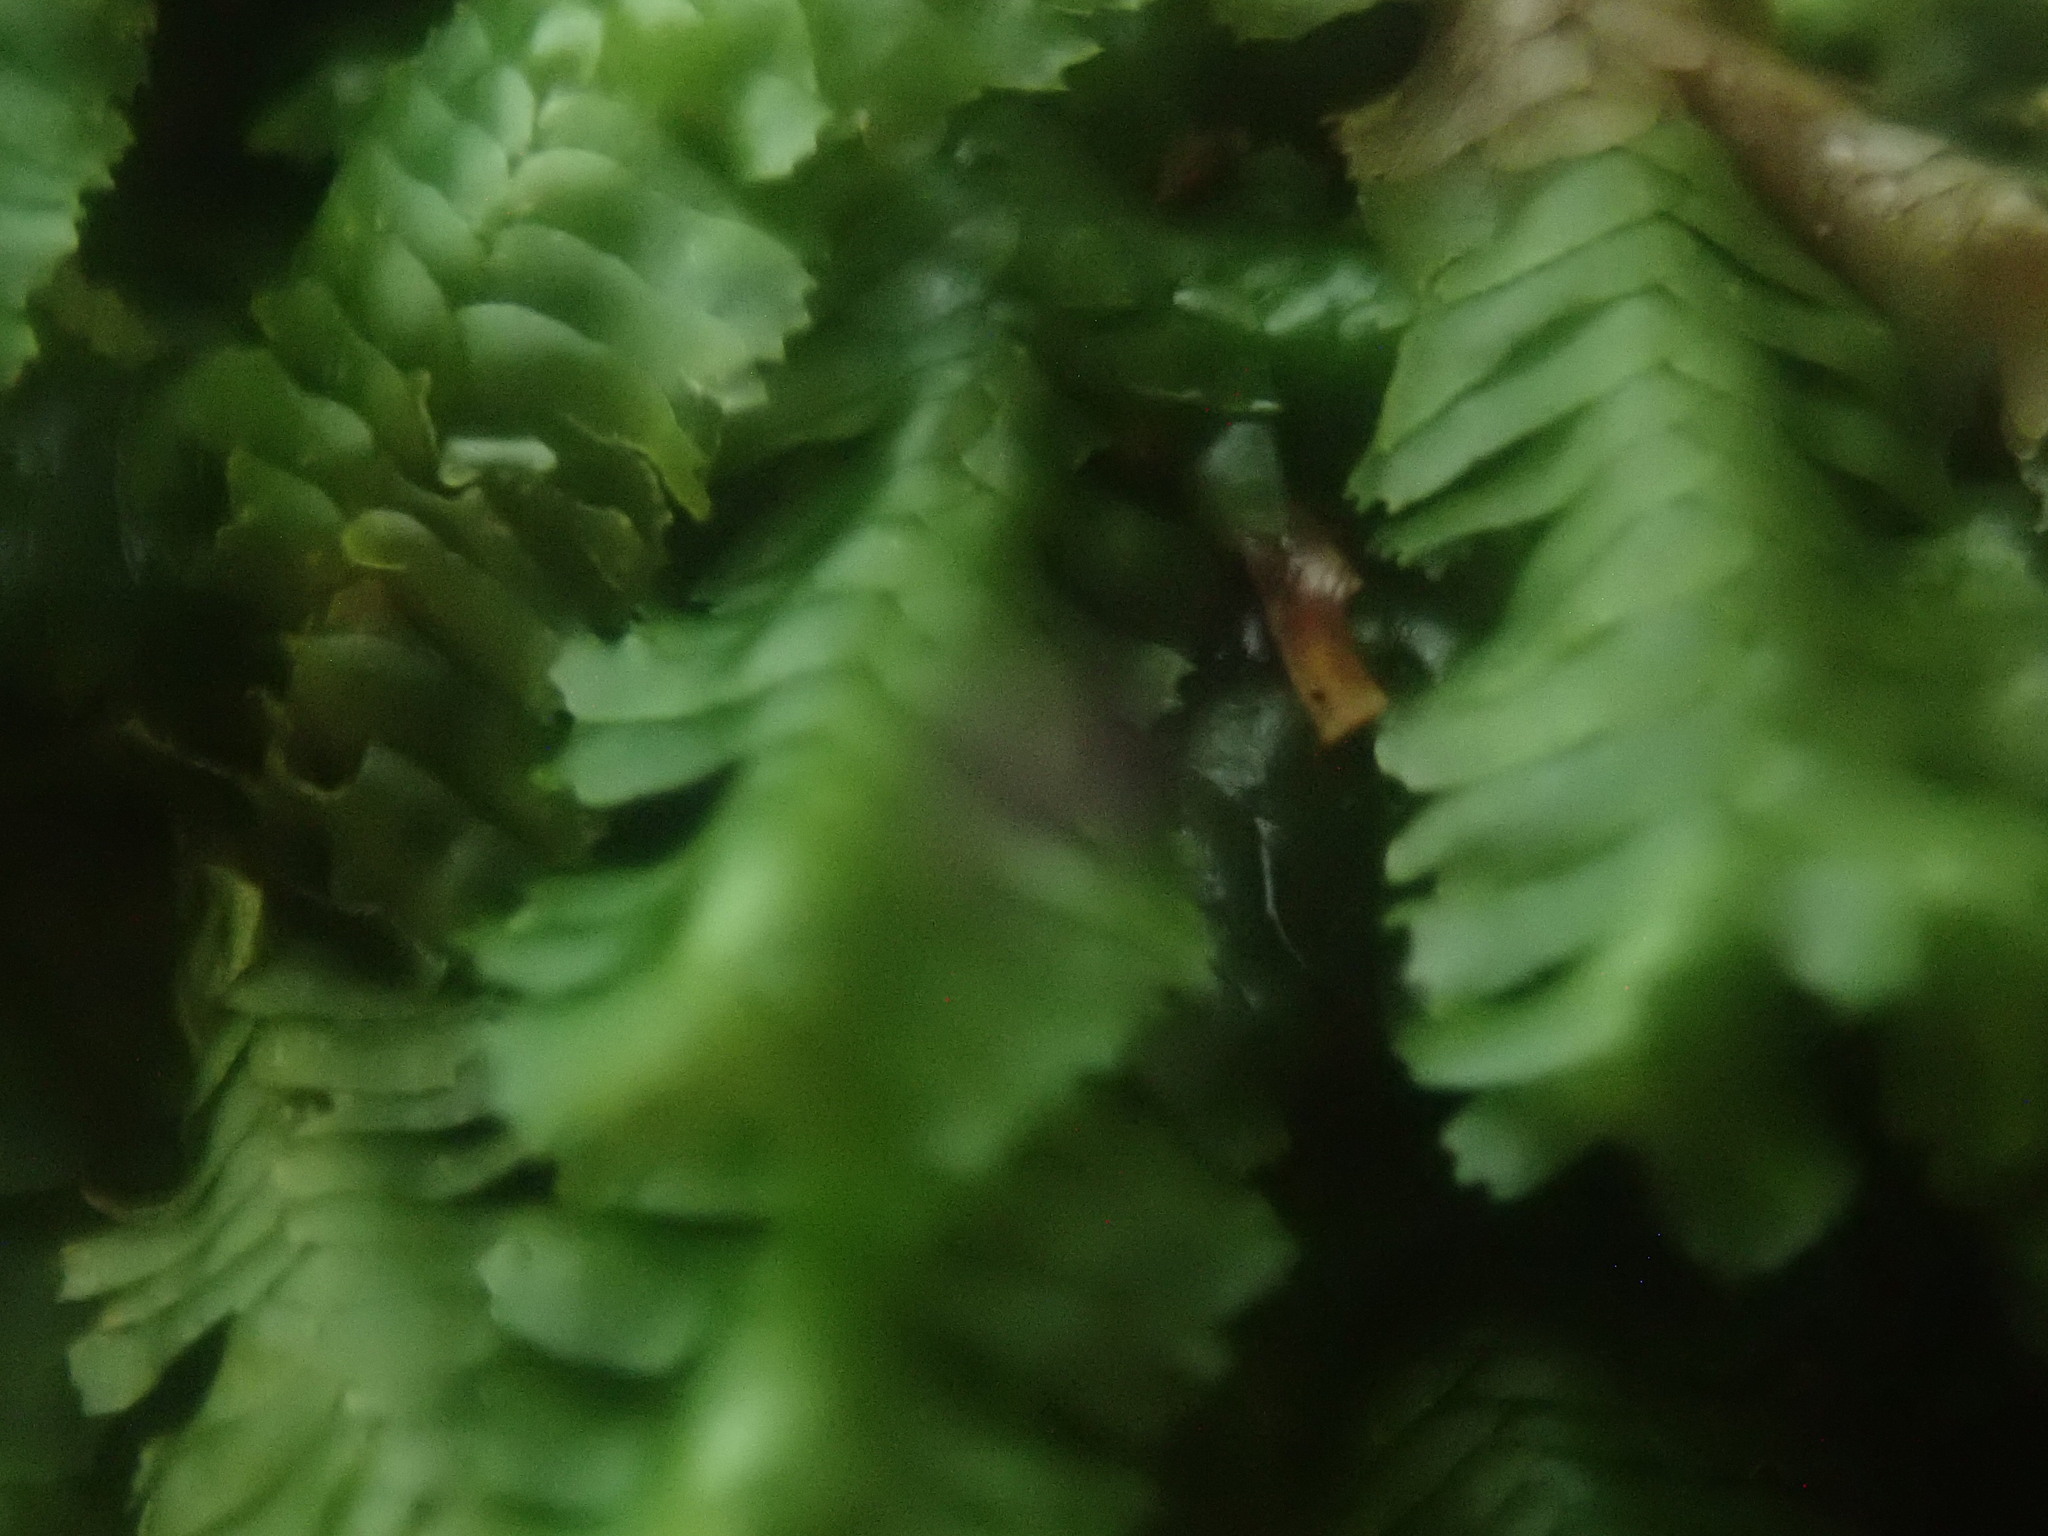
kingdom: Plantae
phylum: Marchantiophyta
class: Jungermanniopsida
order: Jungermanniales
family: Lepidoziaceae
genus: Bazzania
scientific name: Bazzania trilobata
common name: Three-lobed whipwort
